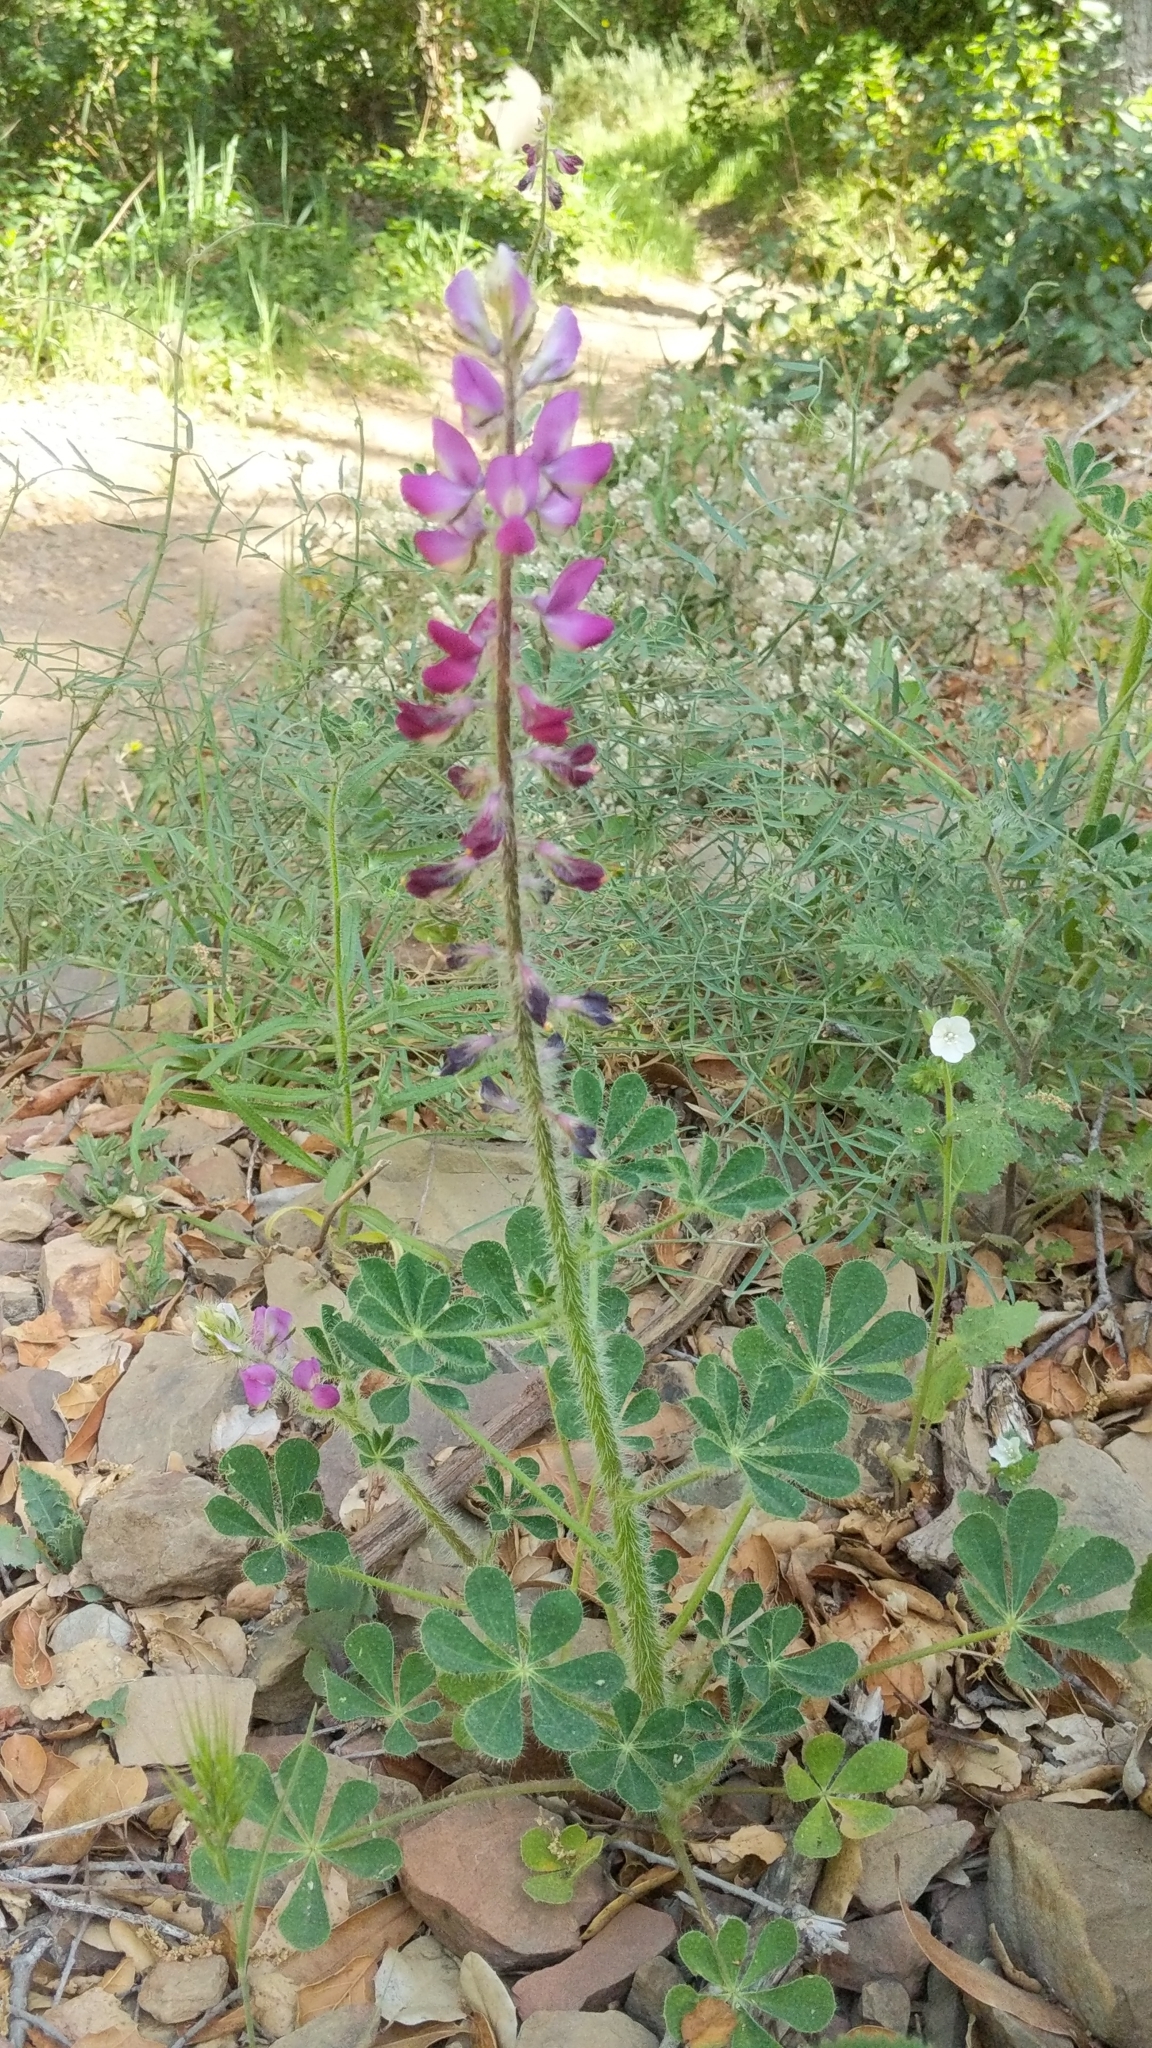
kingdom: Plantae
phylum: Tracheophyta
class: Magnoliopsida
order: Fabales
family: Fabaceae
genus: Lupinus
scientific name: Lupinus hirsutissimus
